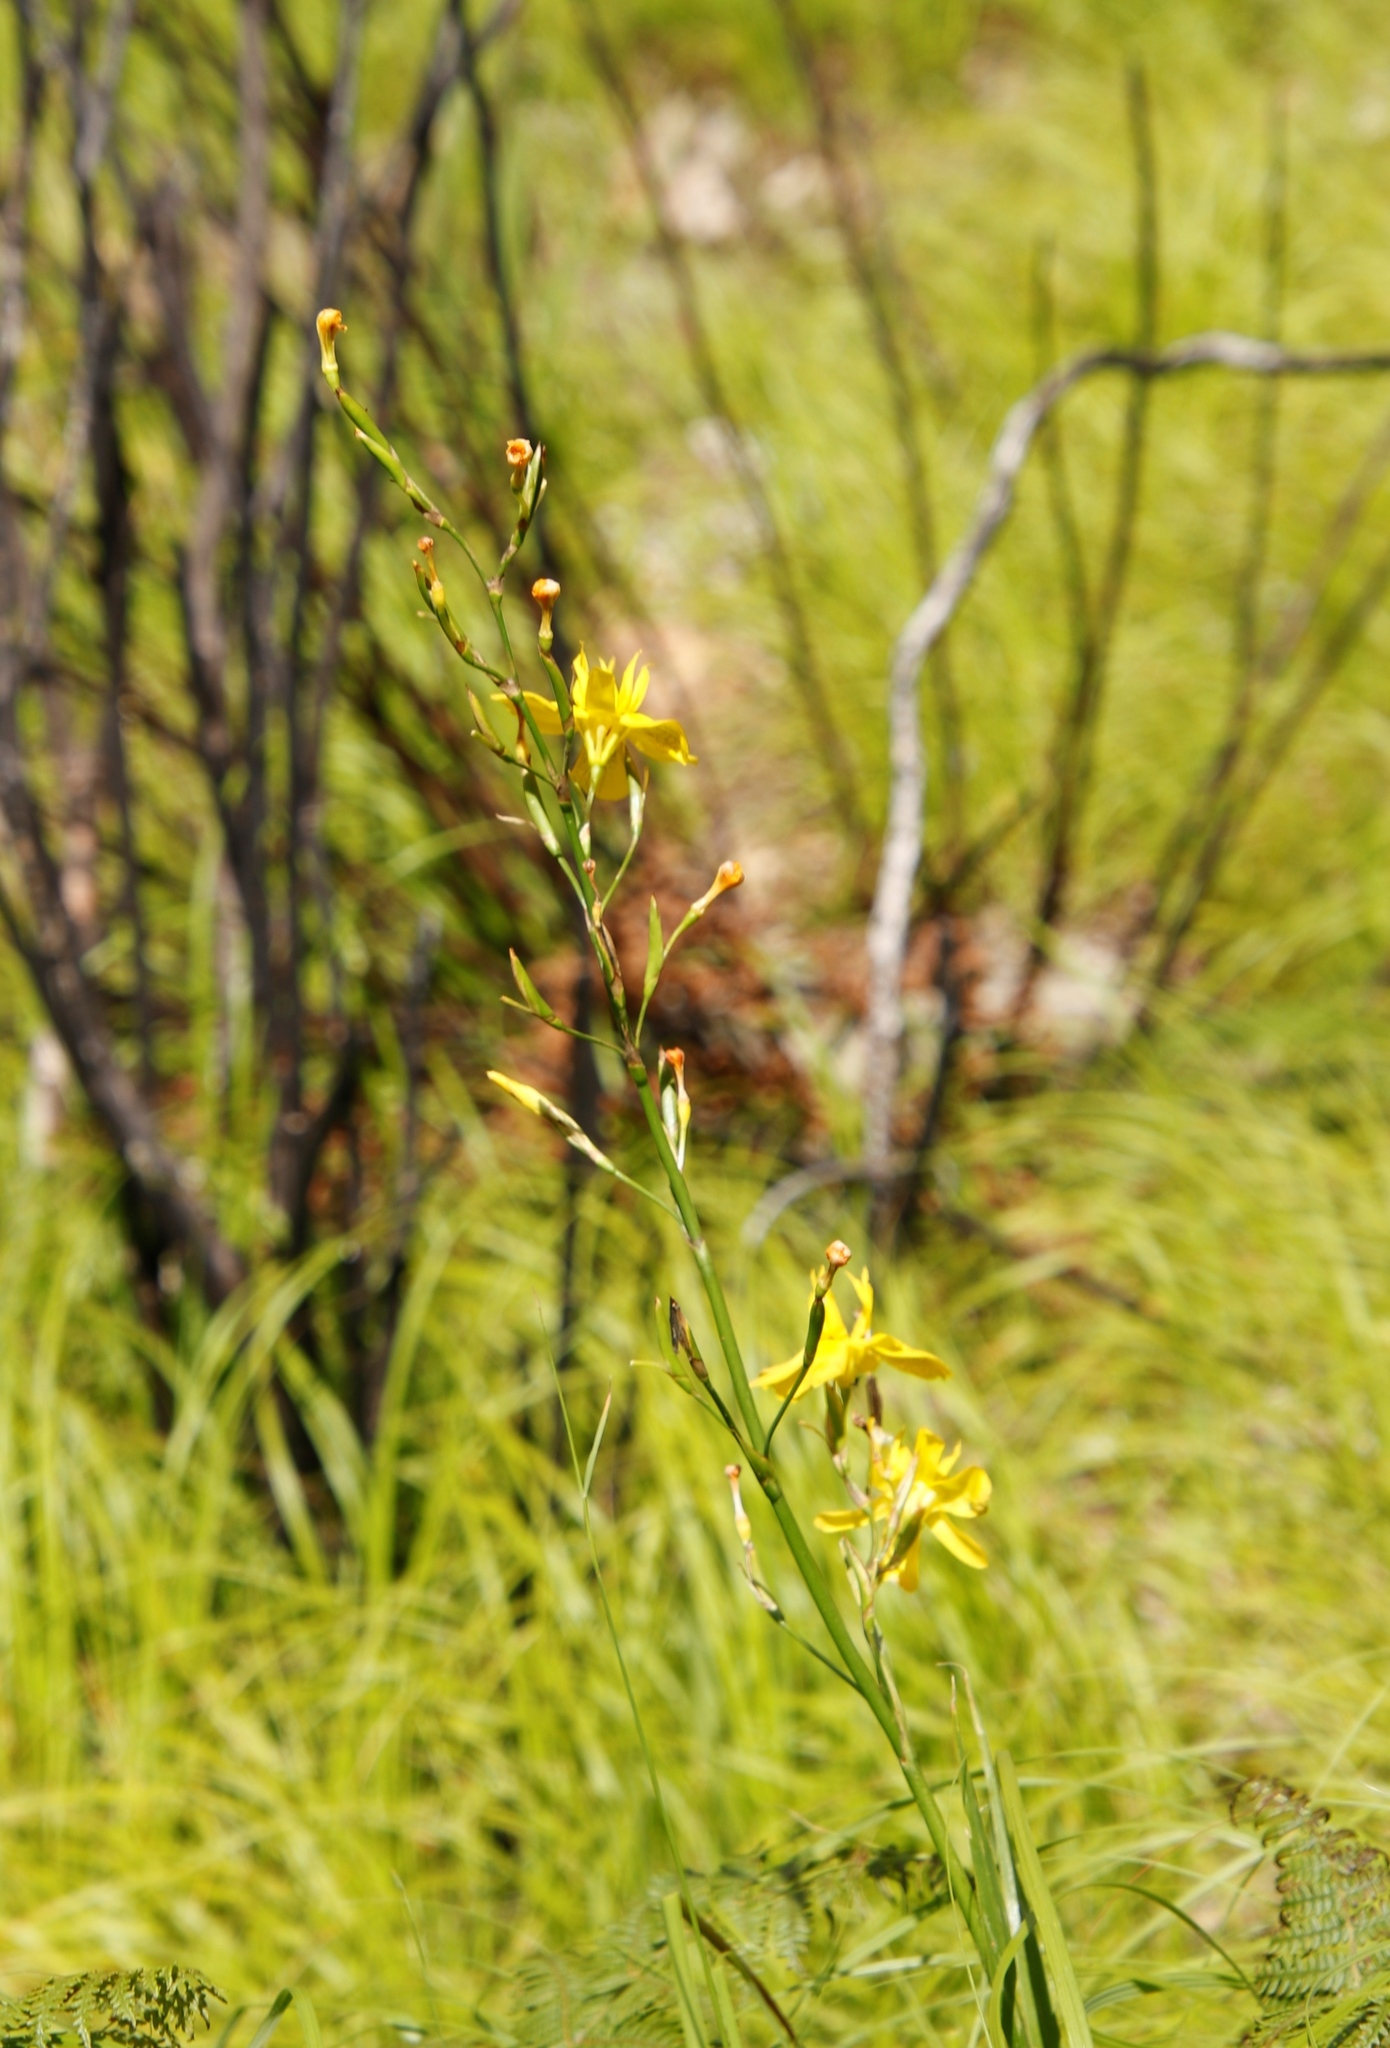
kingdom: Plantae
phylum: Tracheophyta
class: Liliopsida
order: Asparagales
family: Iridaceae
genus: Moraea
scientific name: Moraea ramosissima
